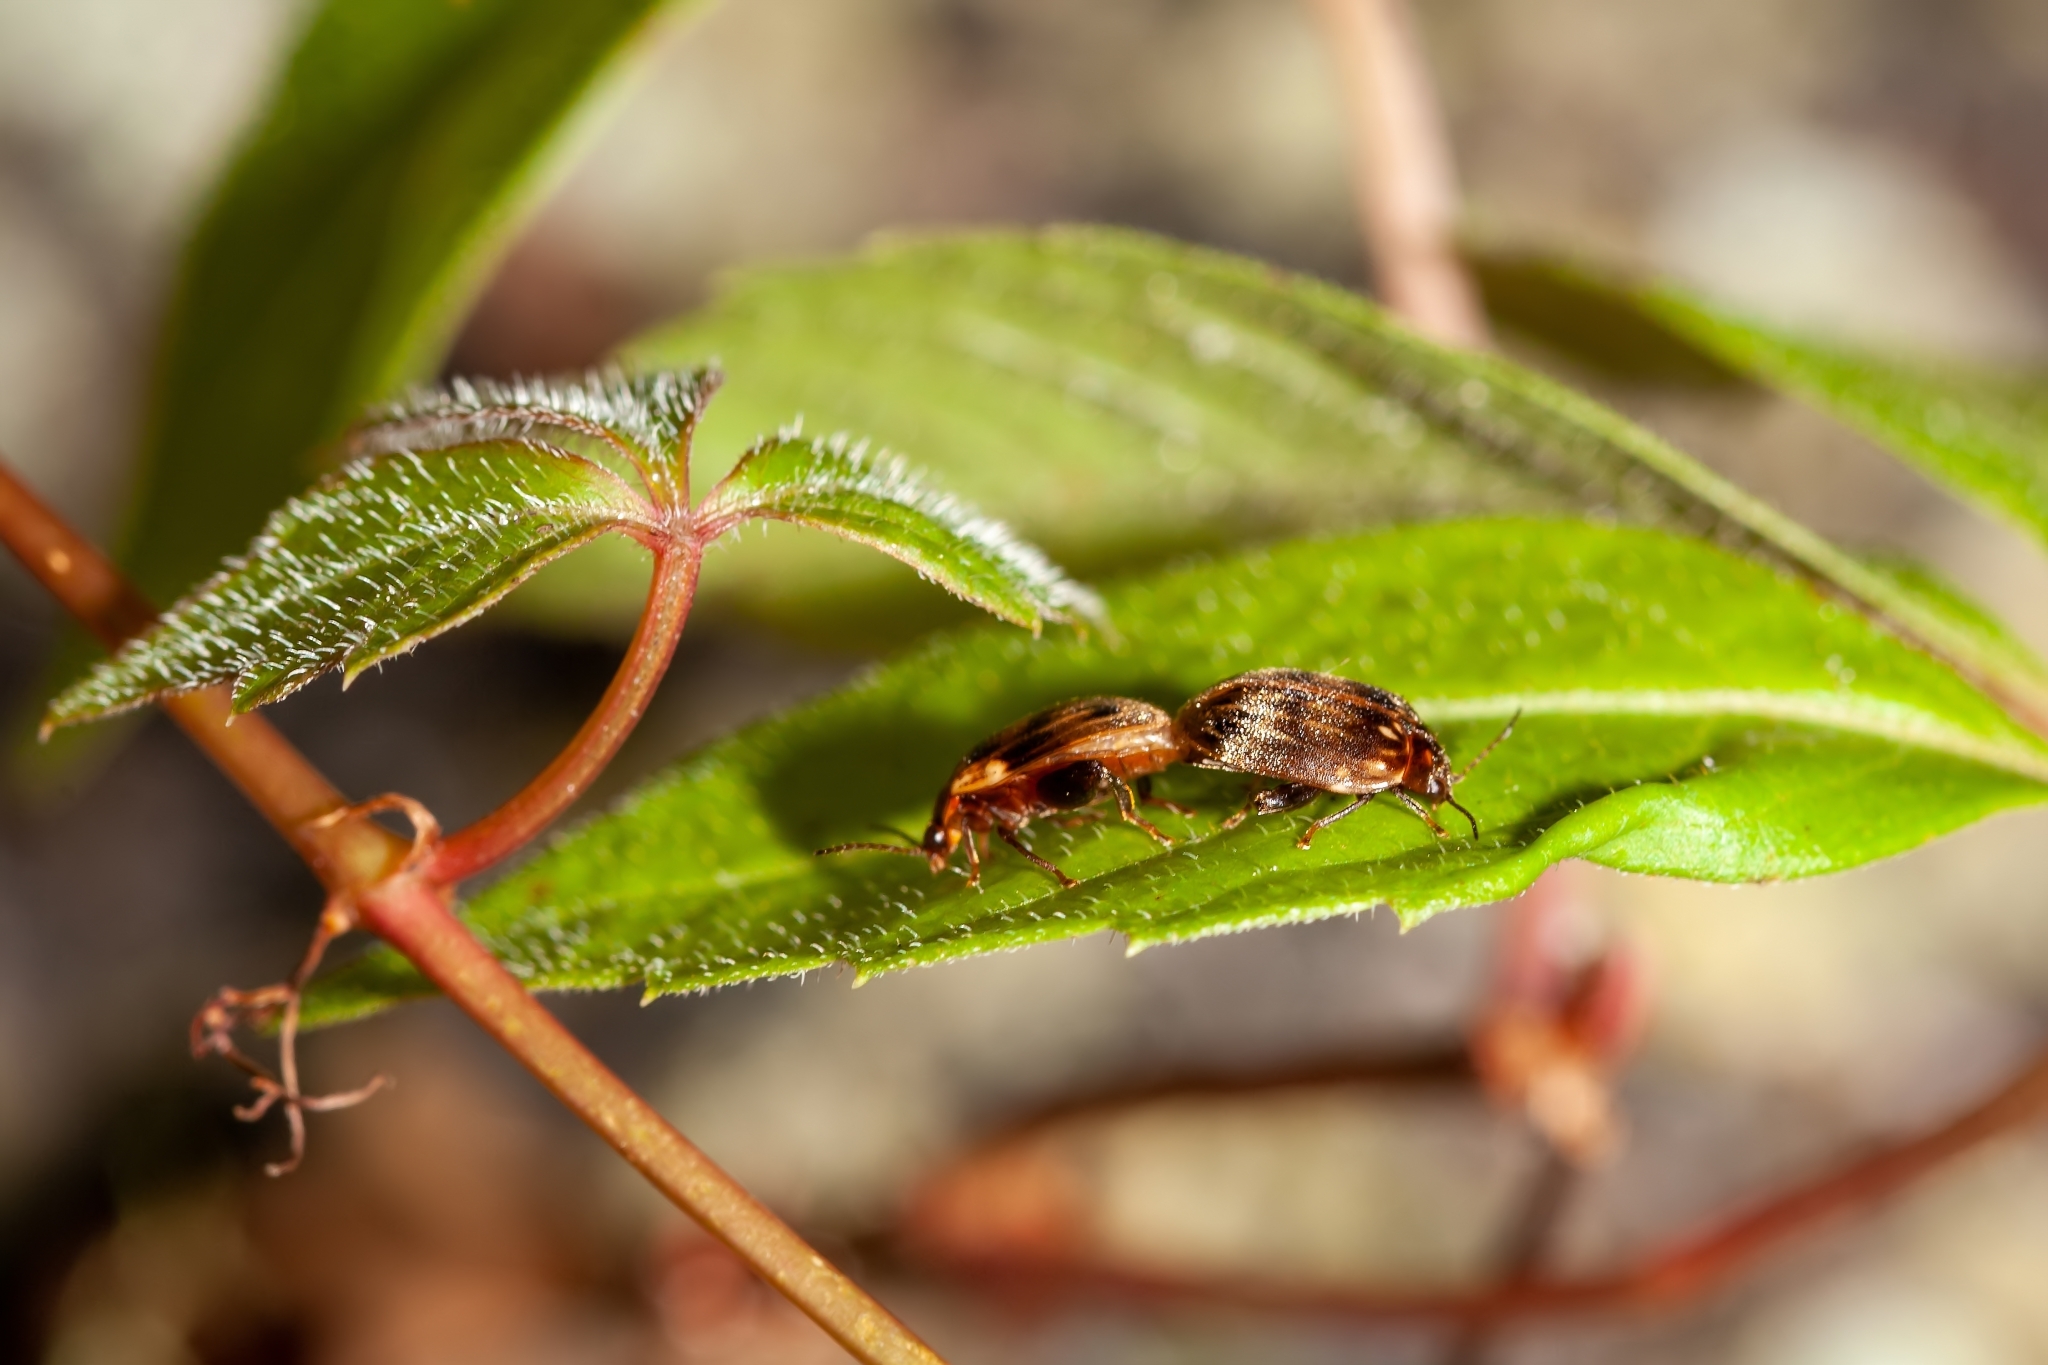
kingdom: Animalia
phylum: Arthropoda
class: Insecta
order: Coleoptera
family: Scirtidae
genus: Ora
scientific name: Ora texana
